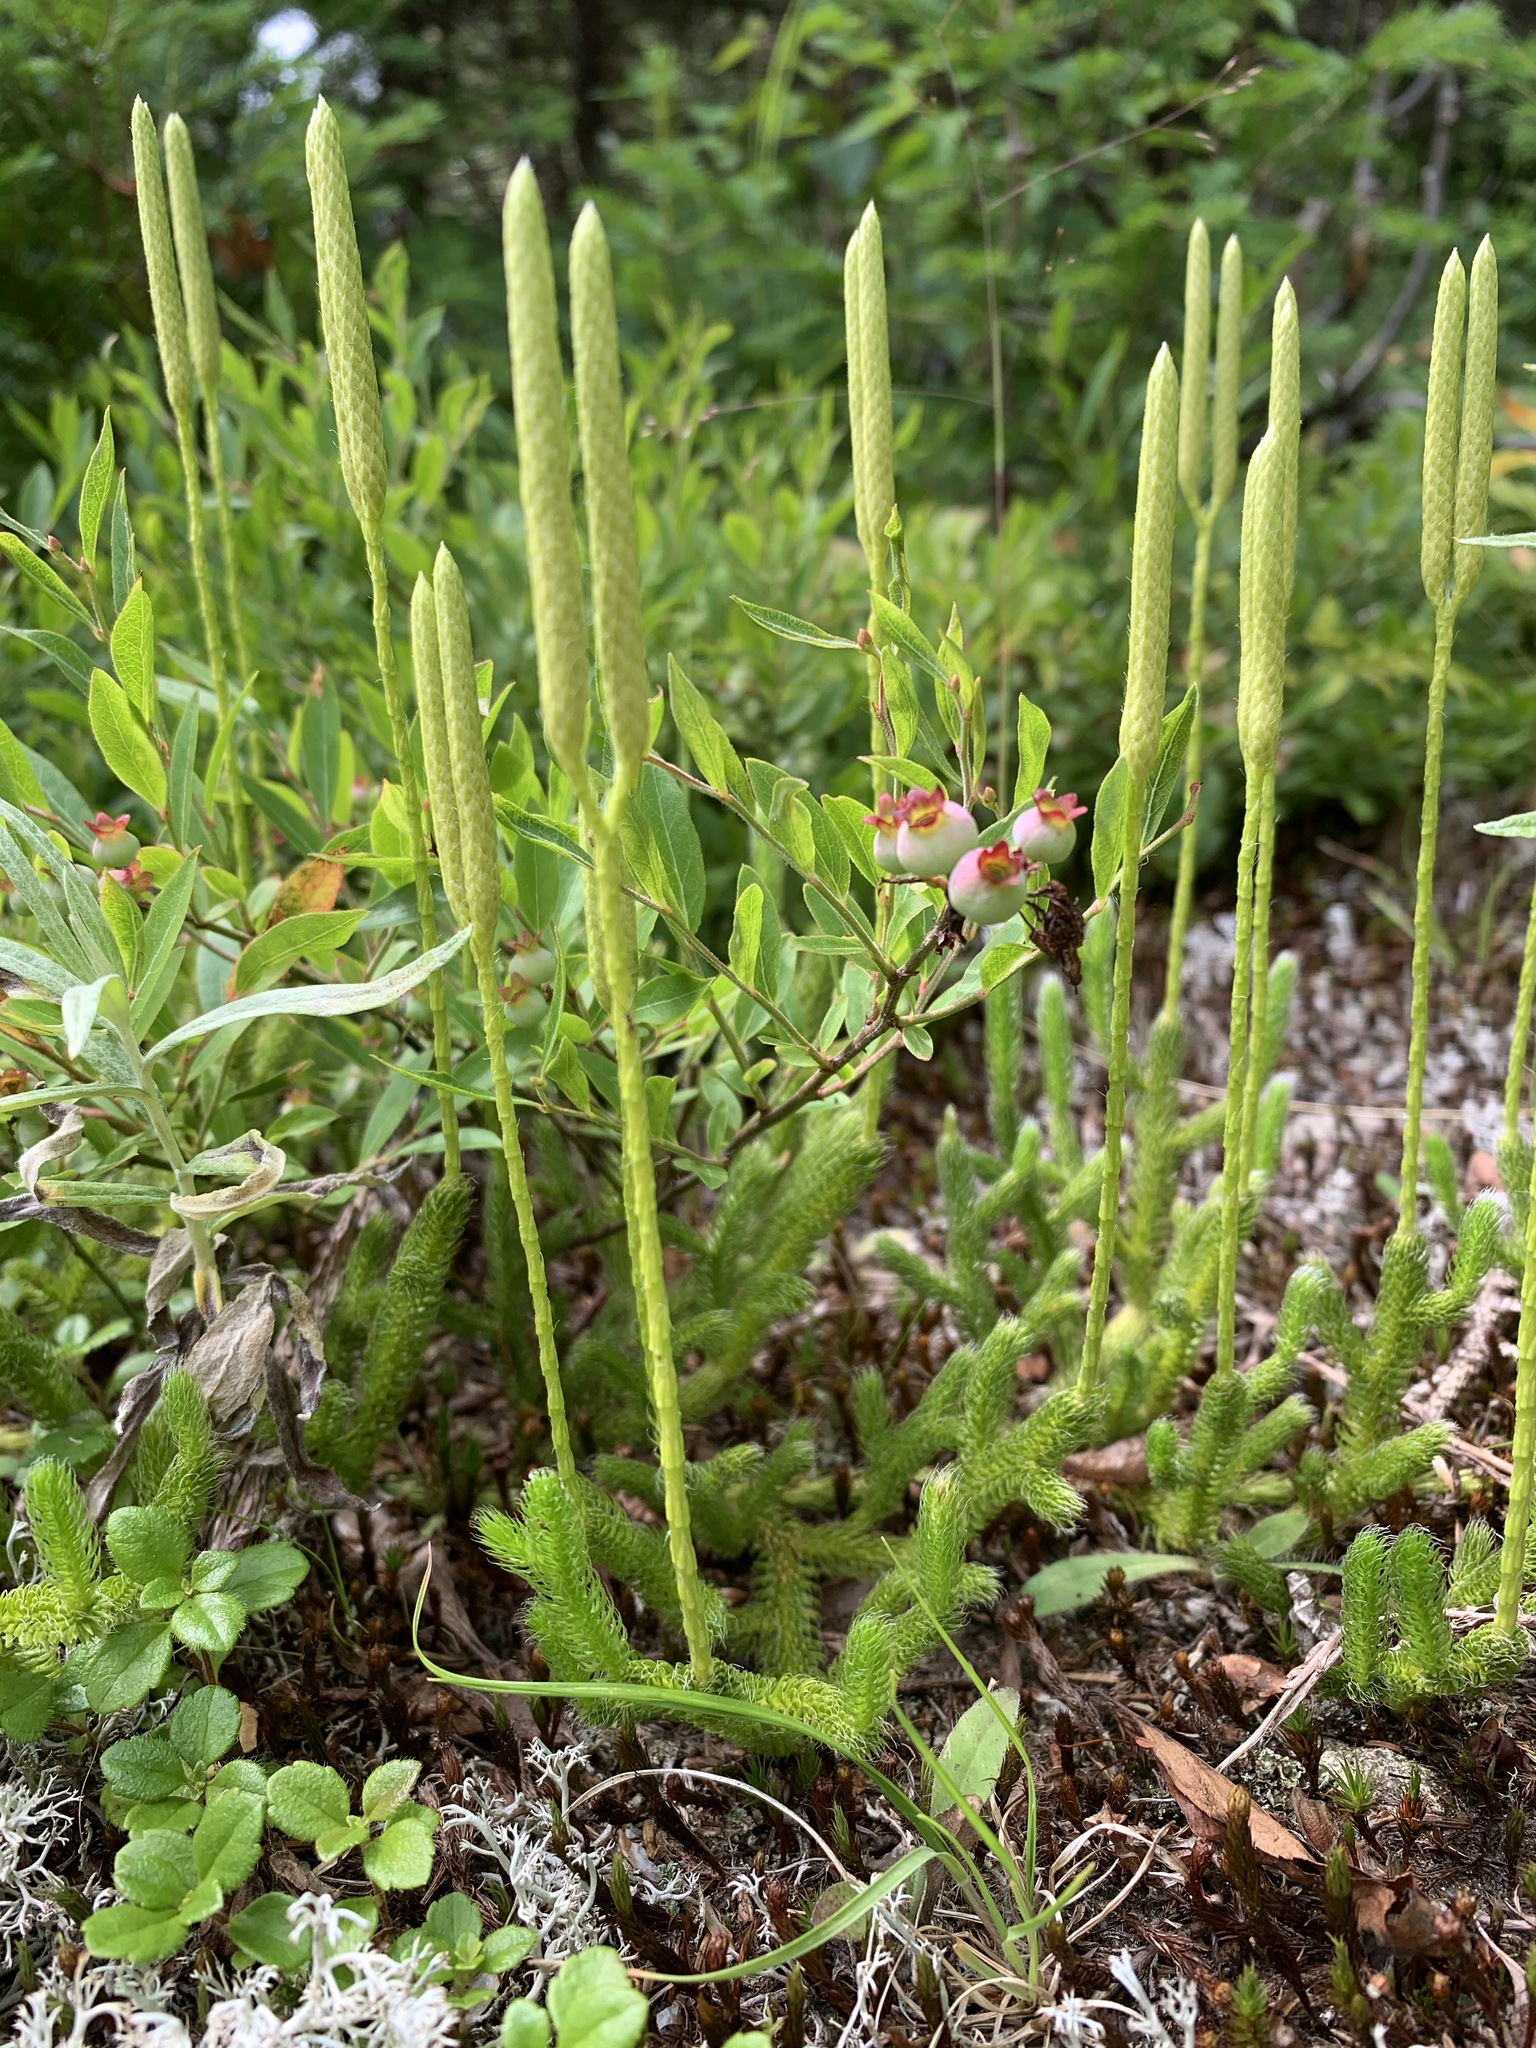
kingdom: Plantae
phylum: Tracheophyta
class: Lycopodiopsida
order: Lycopodiales
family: Lycopodiaceae
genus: Lycopodium
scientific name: Lycopodium clavatum
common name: Stag's-horn clubmoss
